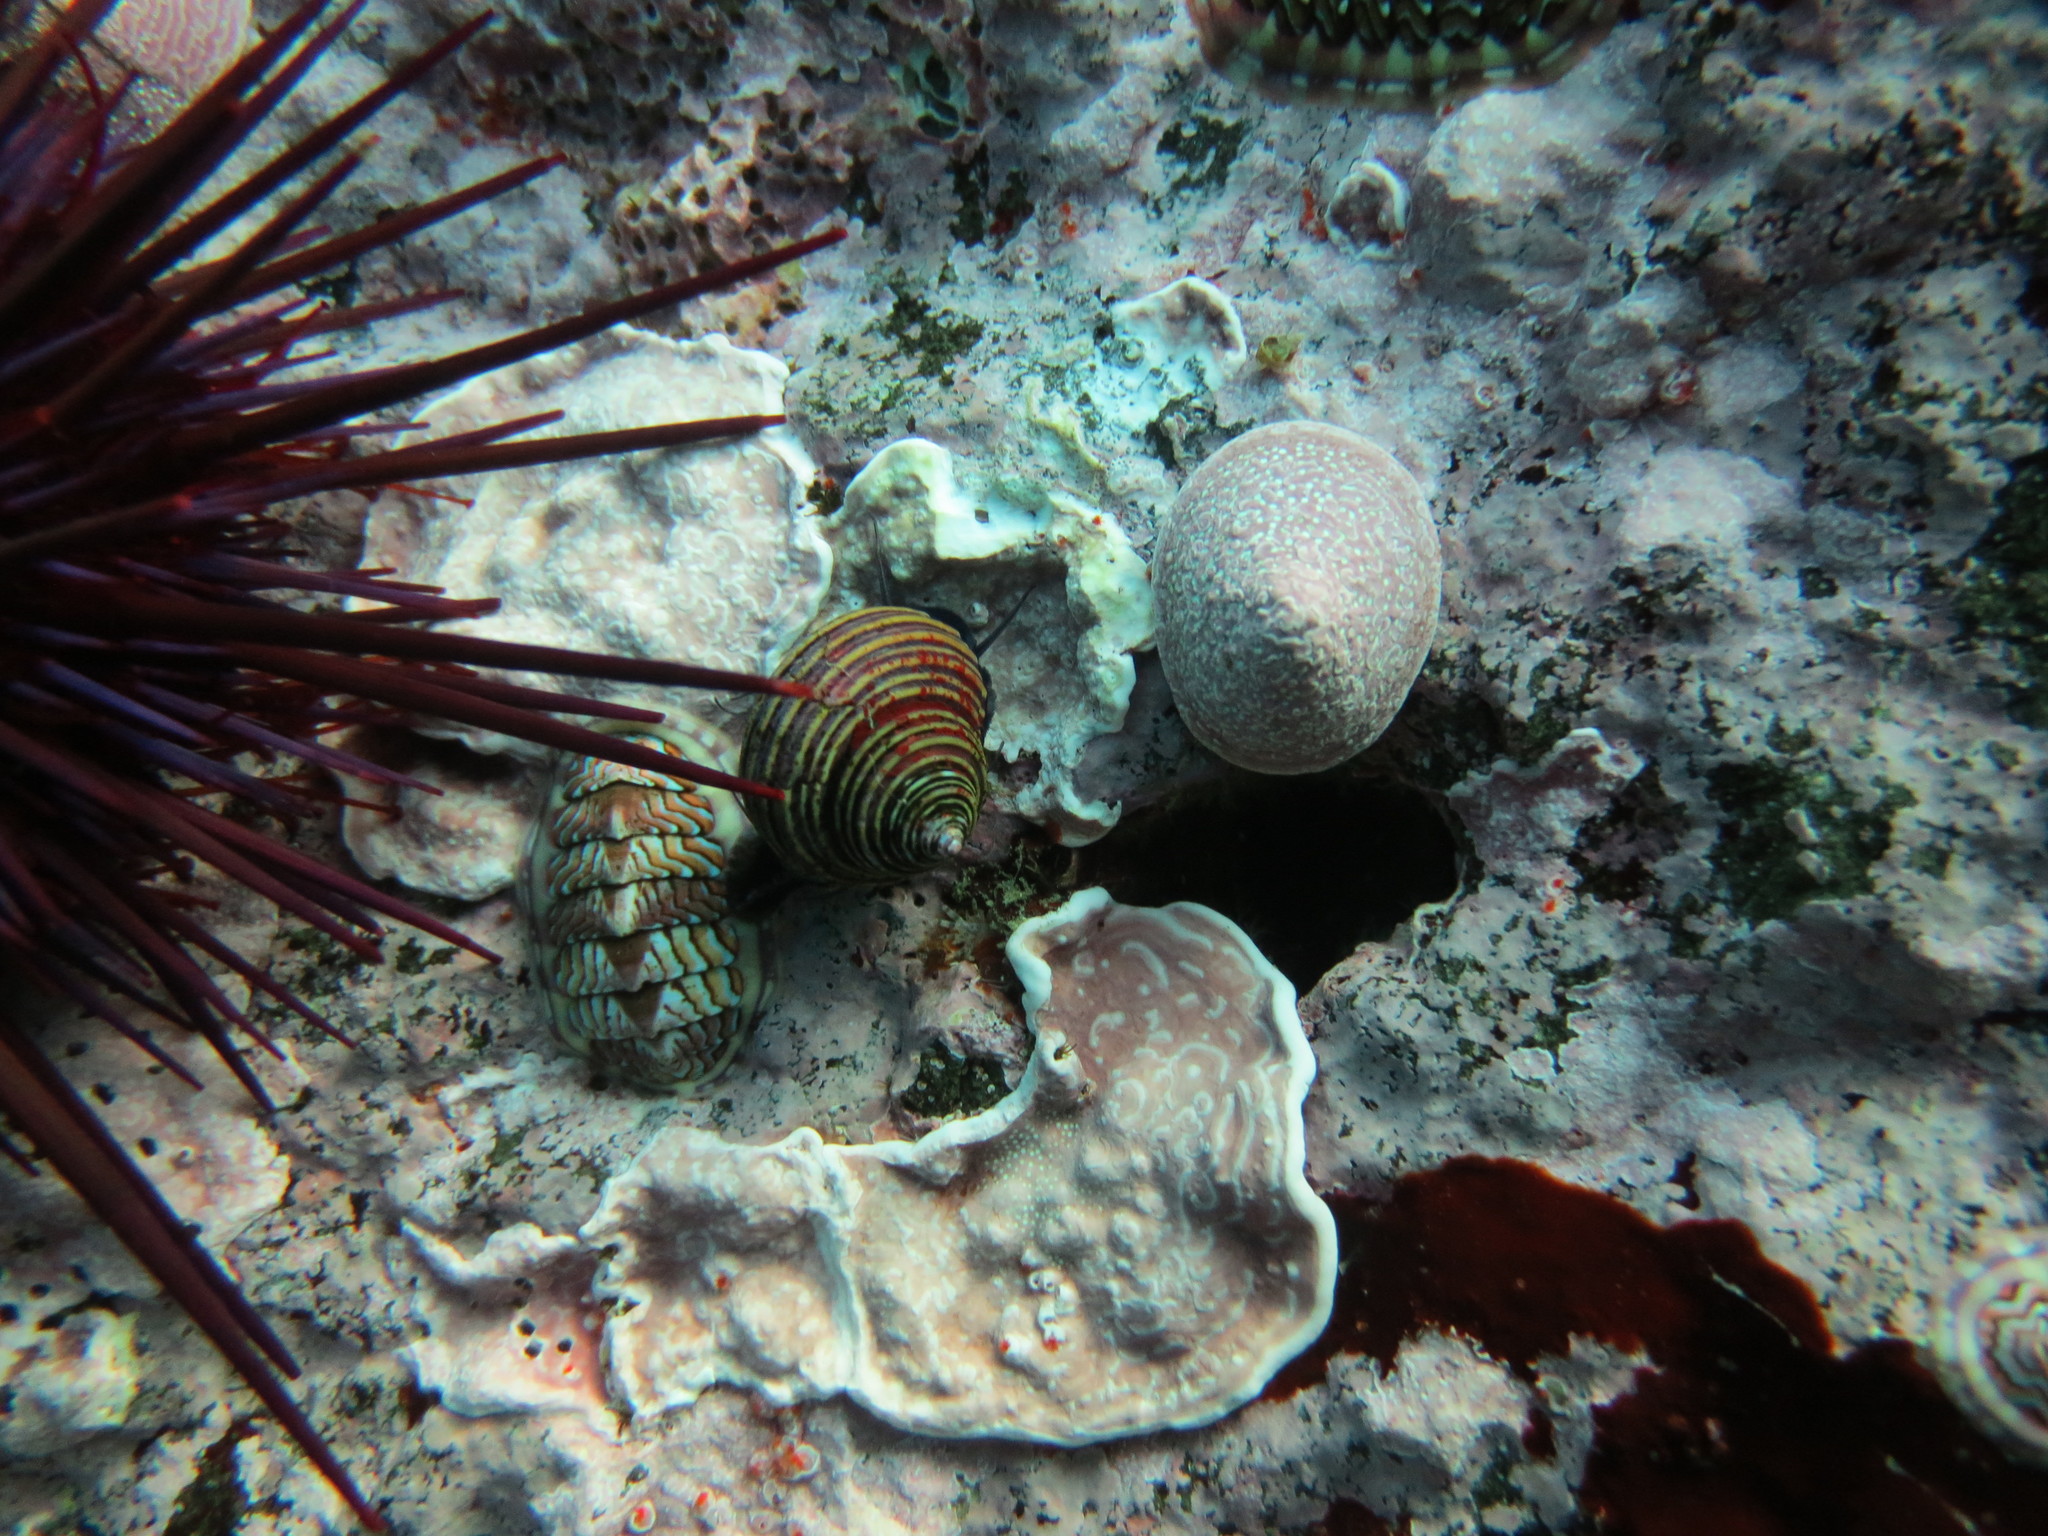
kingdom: Animalia
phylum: Mollusca
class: Gastropoda
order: Trochida
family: Calliostomatidae
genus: Calliostoma
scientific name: Calliostoma ligatum
